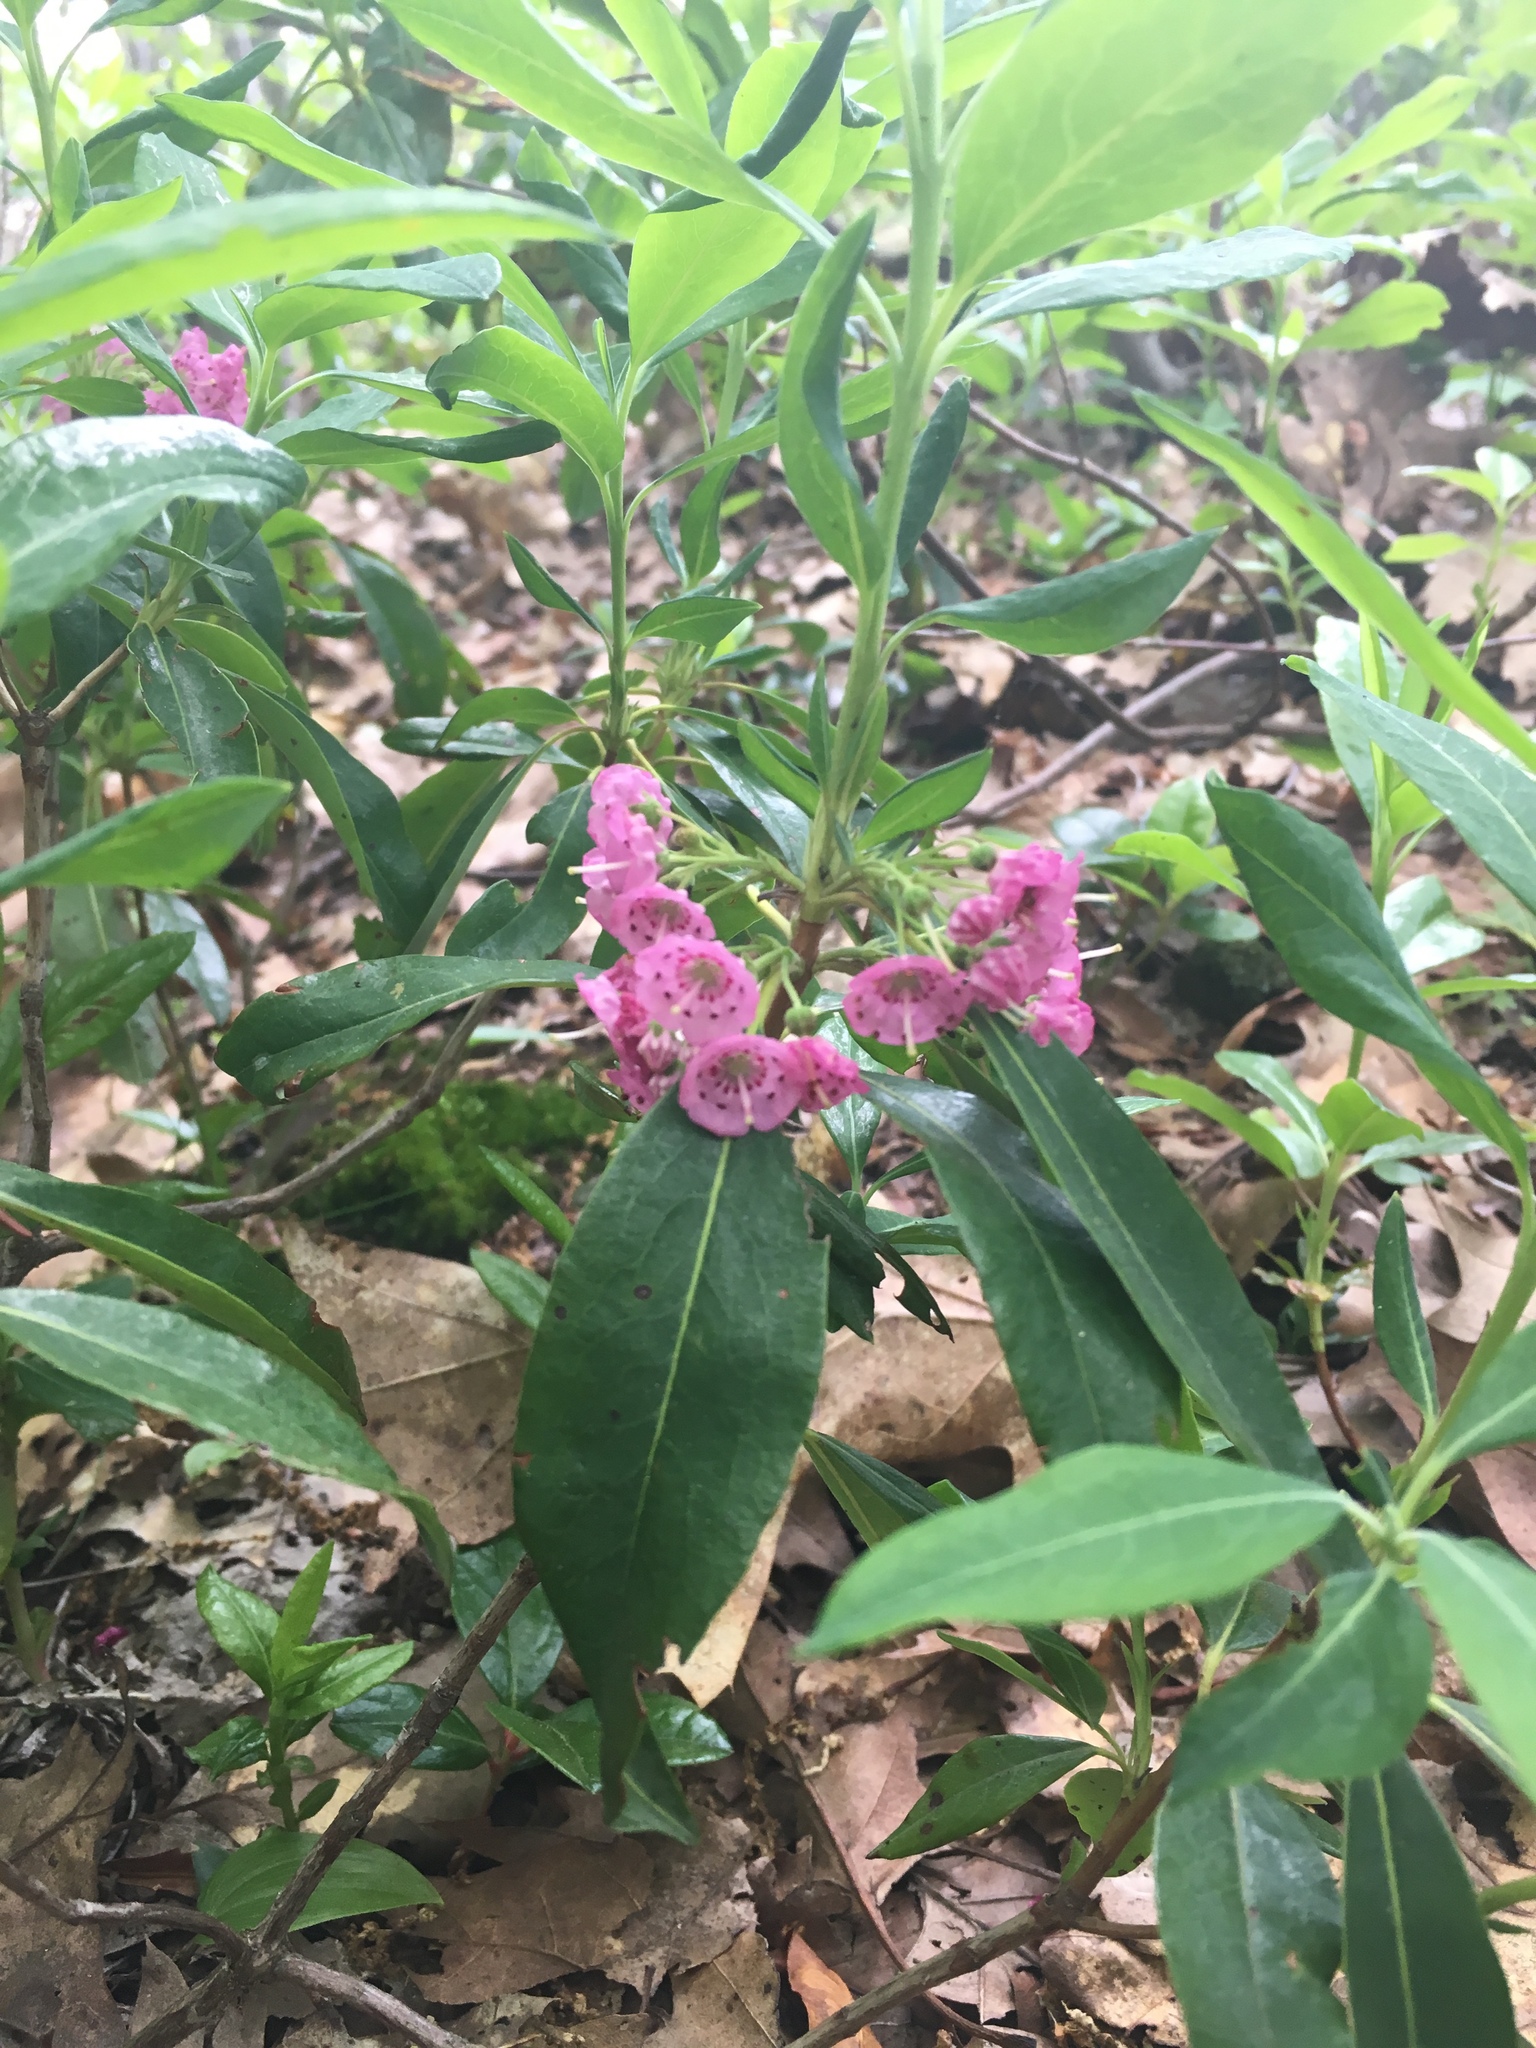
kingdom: Plantae
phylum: Tracheophyta
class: Magnoliopsida
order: Ericales
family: Ericaceae
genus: Kalmia
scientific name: Kalmia angustifolia
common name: Sheep-laurel
